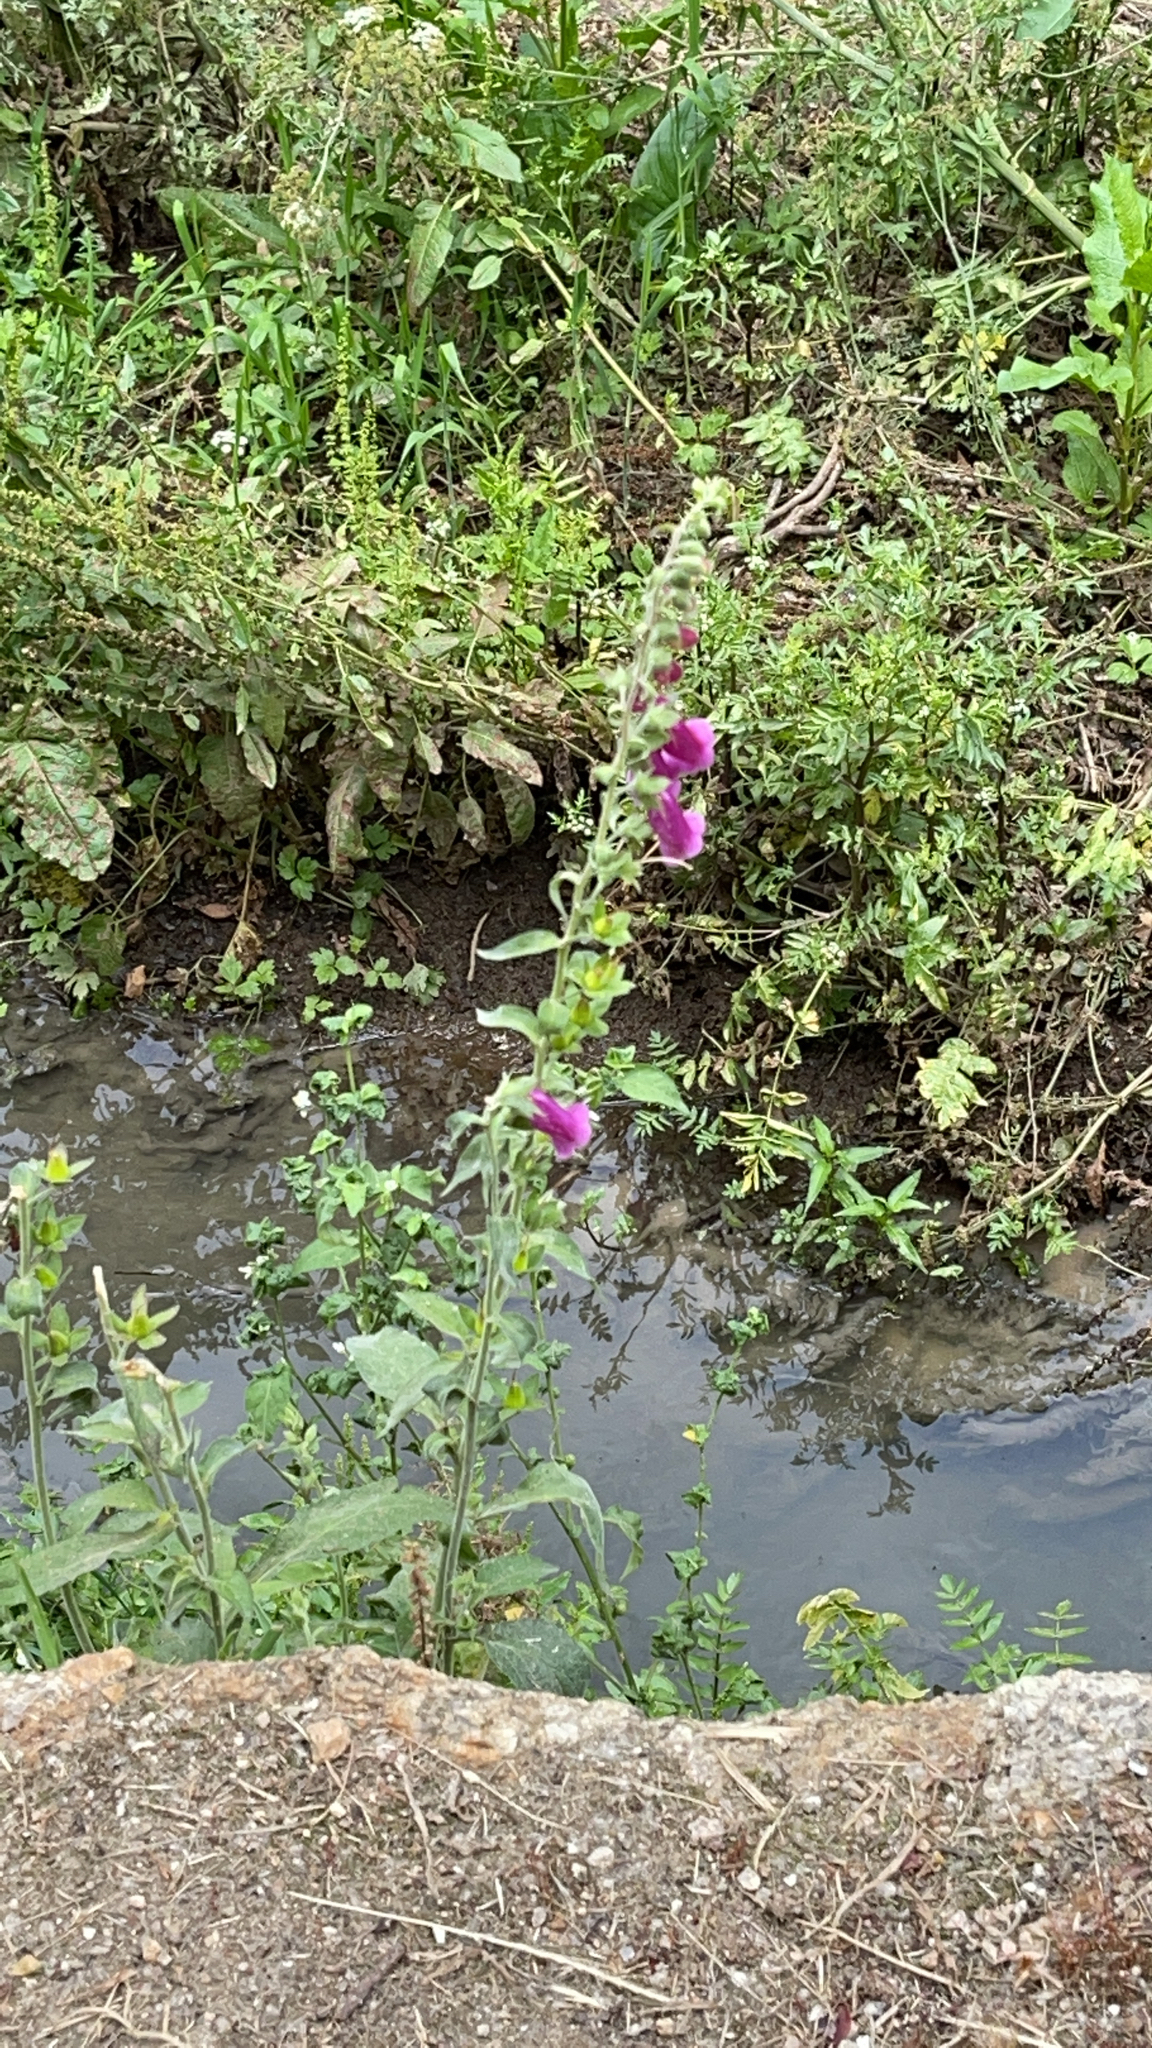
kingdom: Plantae
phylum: Tracheophyta
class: Magnoliopsida
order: Lamiales
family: Plantaginaceae
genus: Digitalis
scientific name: Digitalis purpurea
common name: Foxglove
